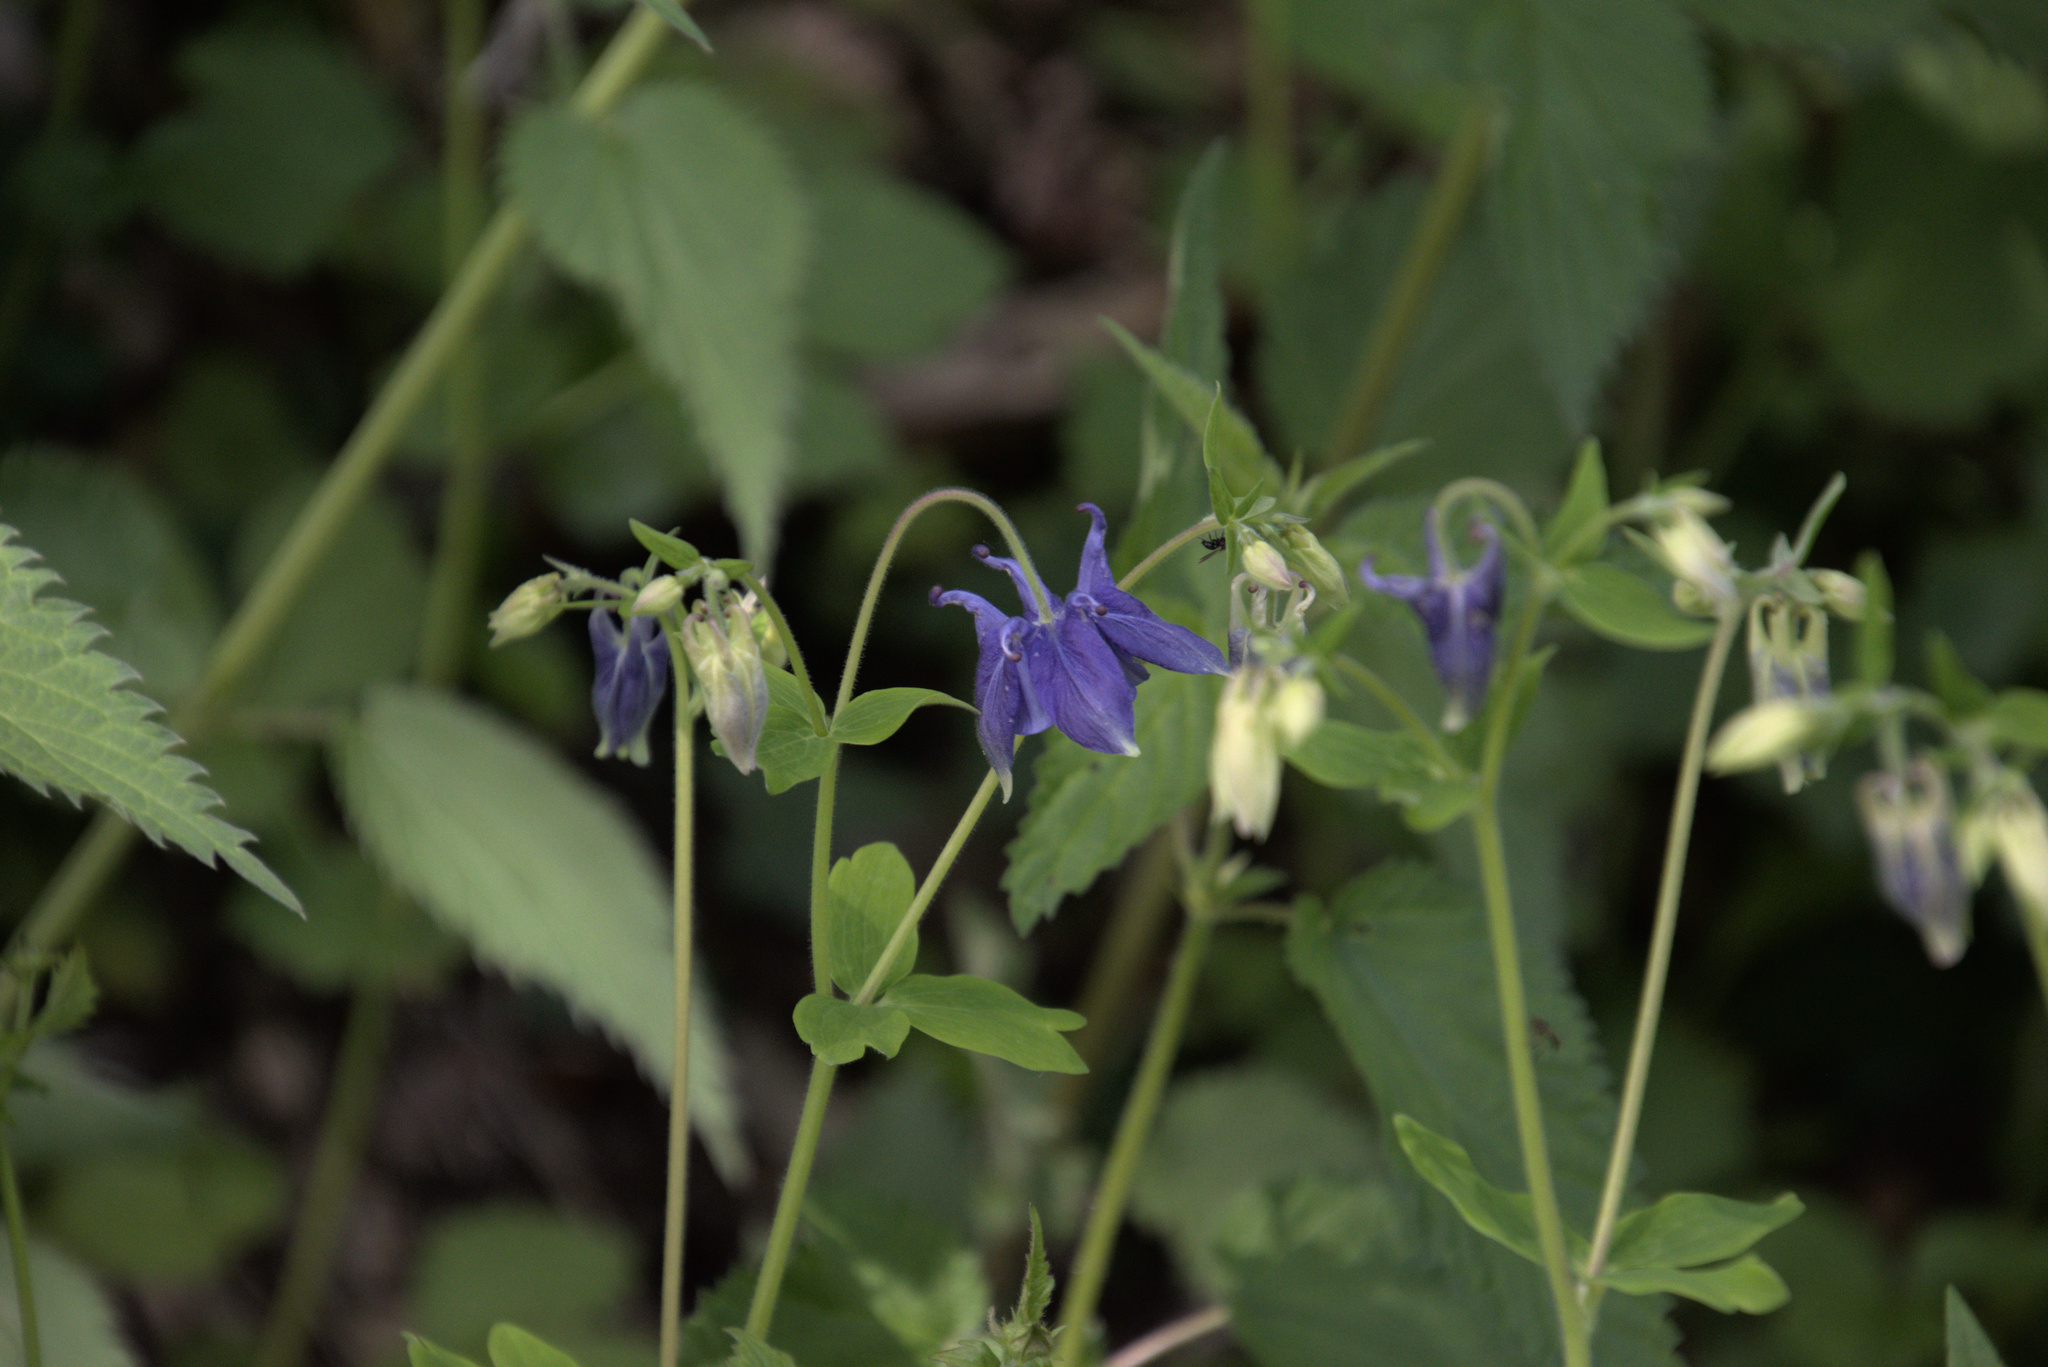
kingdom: Plantae
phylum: Tracheophyta
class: Magnoliopsida
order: Ranunculales
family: Ranunculaceae
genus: Aquilegia
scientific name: Aquilegia vulgaris
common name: Columbine
